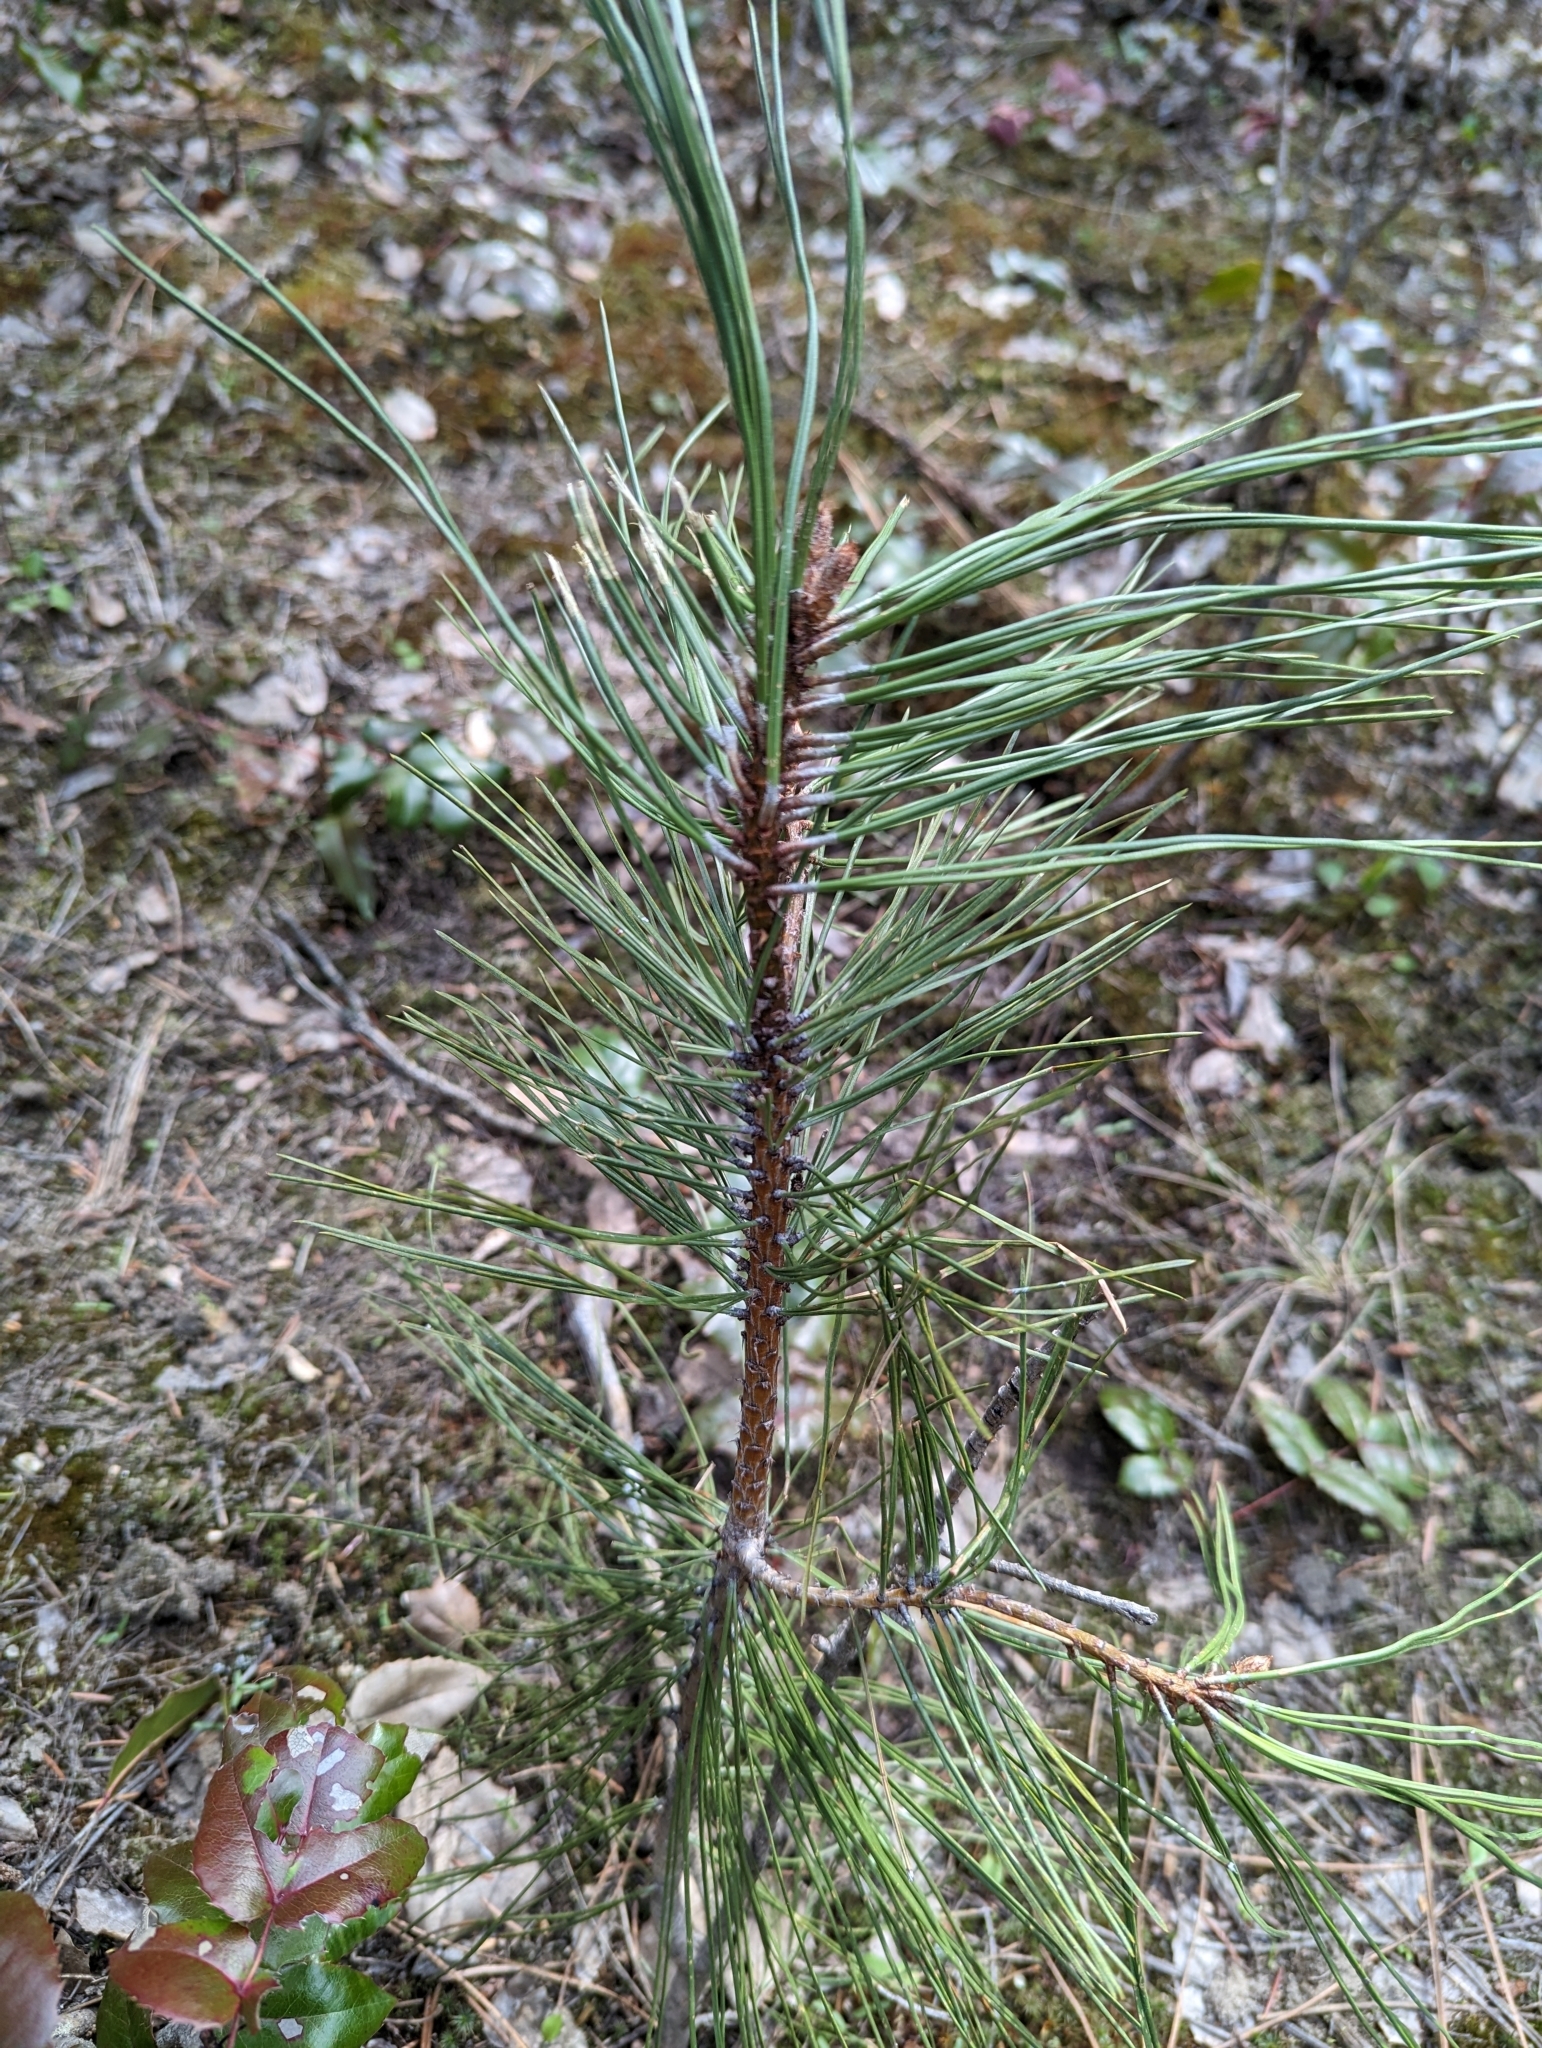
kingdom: Plantae
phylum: Tracheophyta
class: Pinopsida
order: Pinales
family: Pinaceae
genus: Pinus
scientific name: Pinus ponderosa
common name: Western yellow-pine
